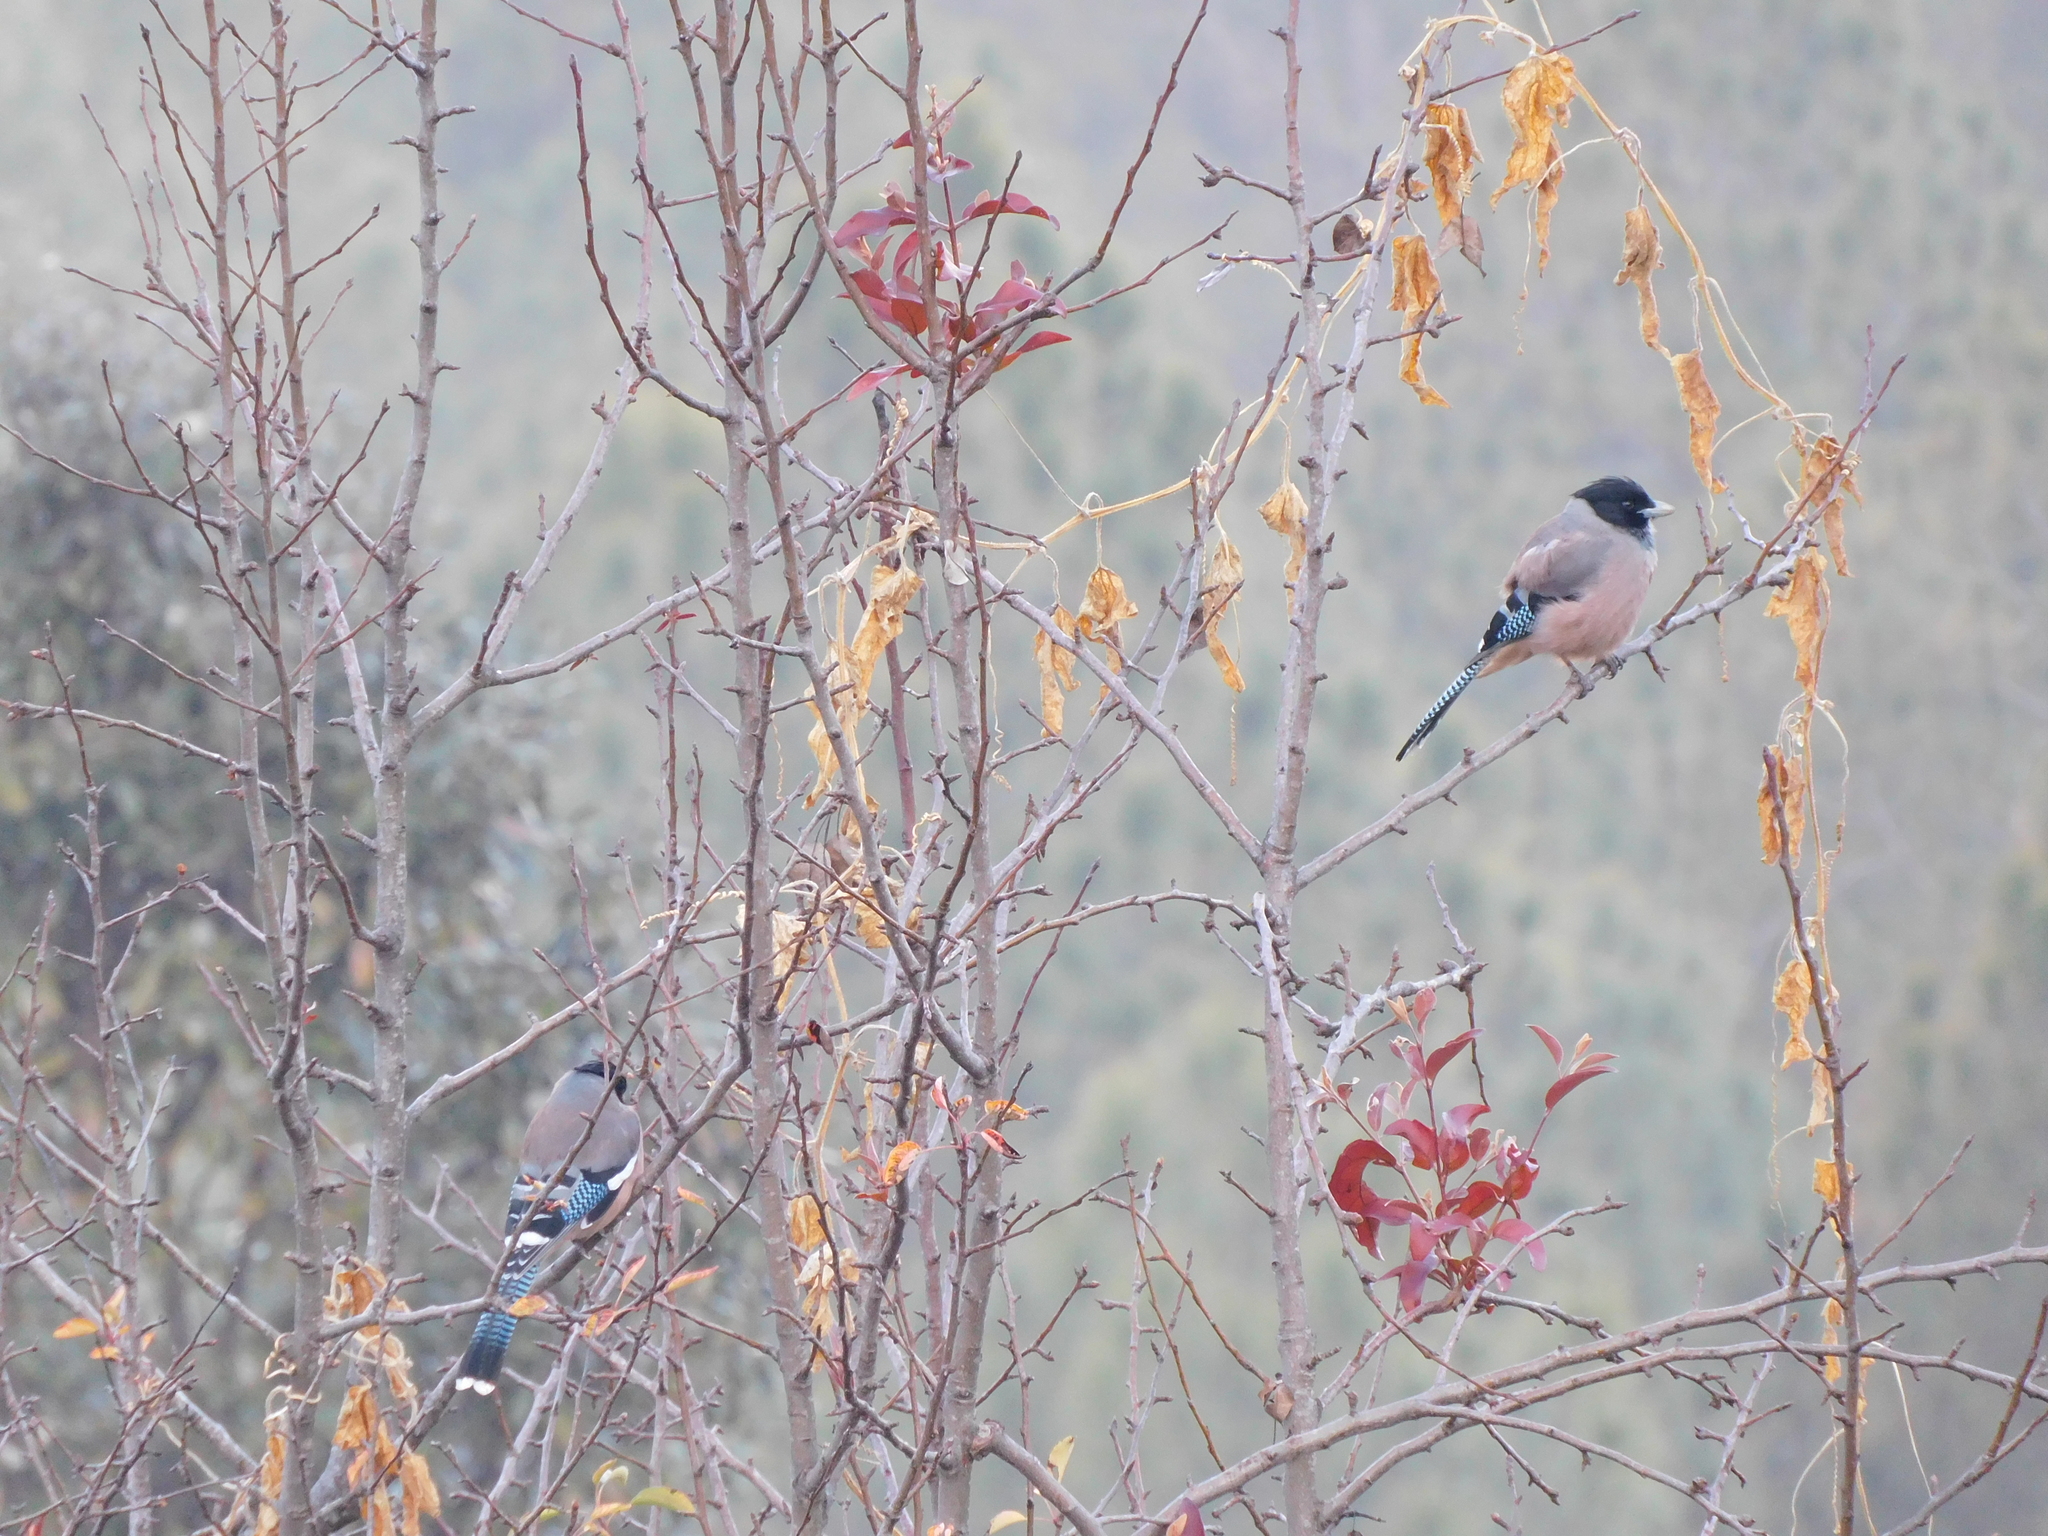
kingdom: Animalia
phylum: Chordata
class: Aves
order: Passeriformes
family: Corvidae
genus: Garrulus
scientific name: Garrulus lanceolatus
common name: Black-headed jay
